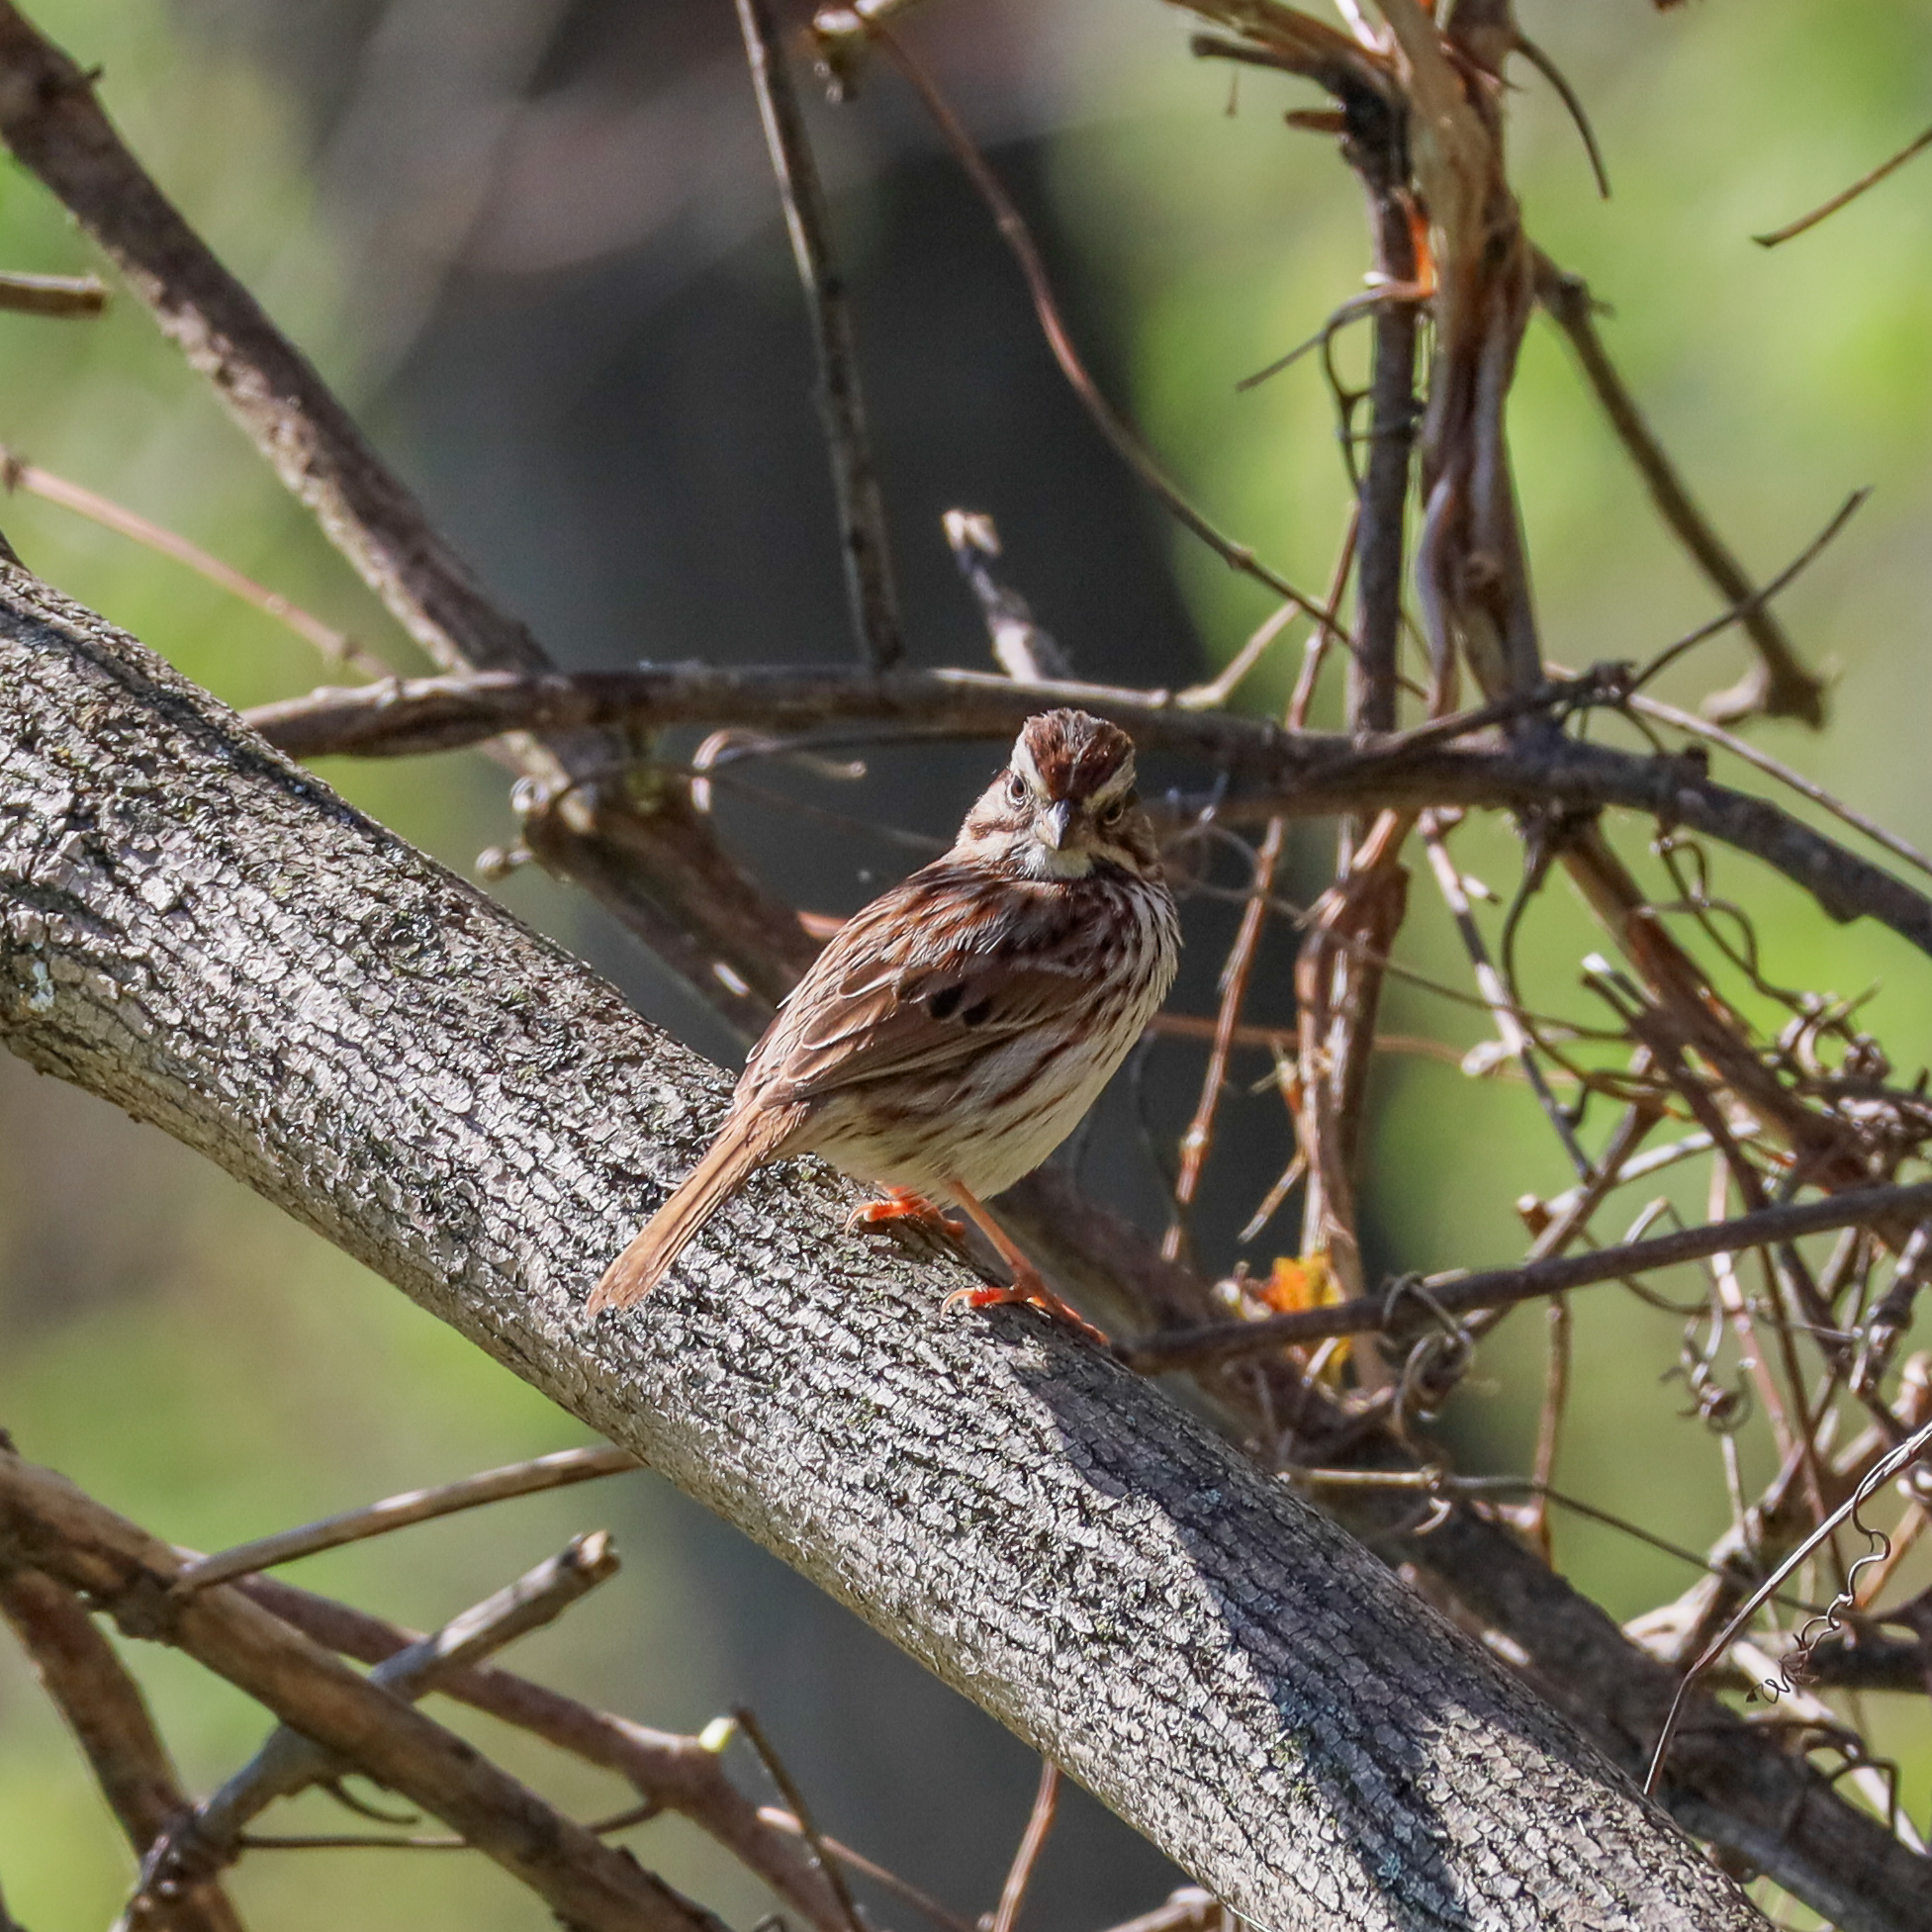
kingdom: Animalia
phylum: Chordata
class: Aves
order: Passeriformes
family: Passerellidae
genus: Melospiza
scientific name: Melospiza melodia
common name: Song sparrow
